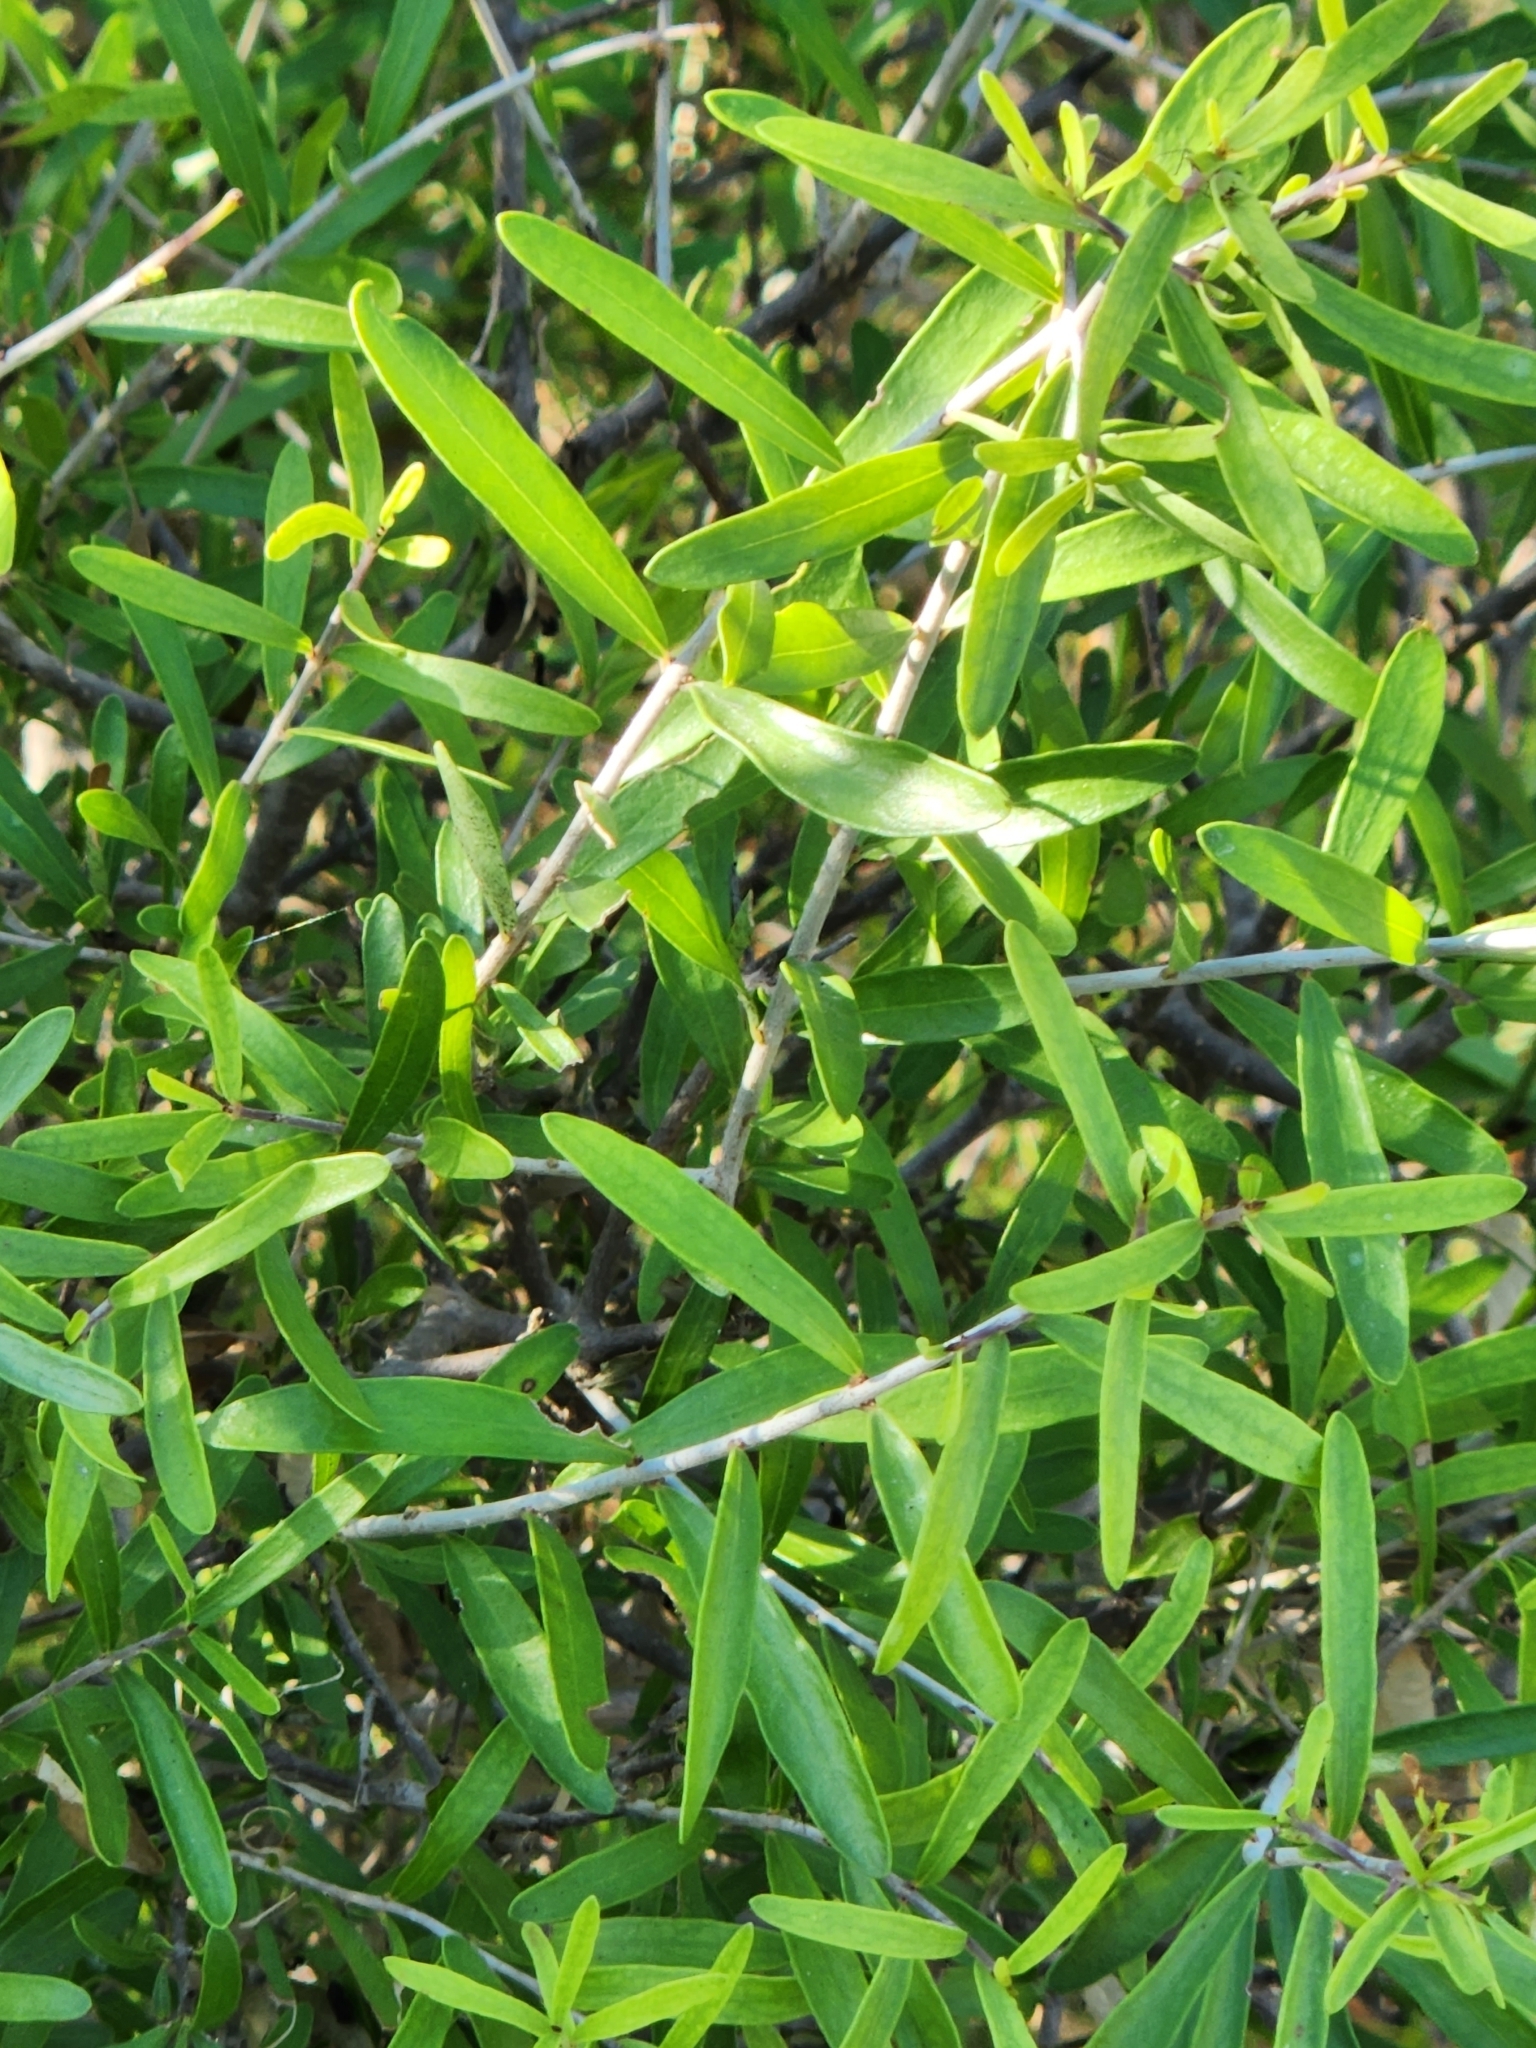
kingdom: Plantae
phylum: Tracheophyta
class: Magnoliopsida
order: Lamiales
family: Oleaceae
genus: Forestiera
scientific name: Forestiera angustifolia
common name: Elbowbush
